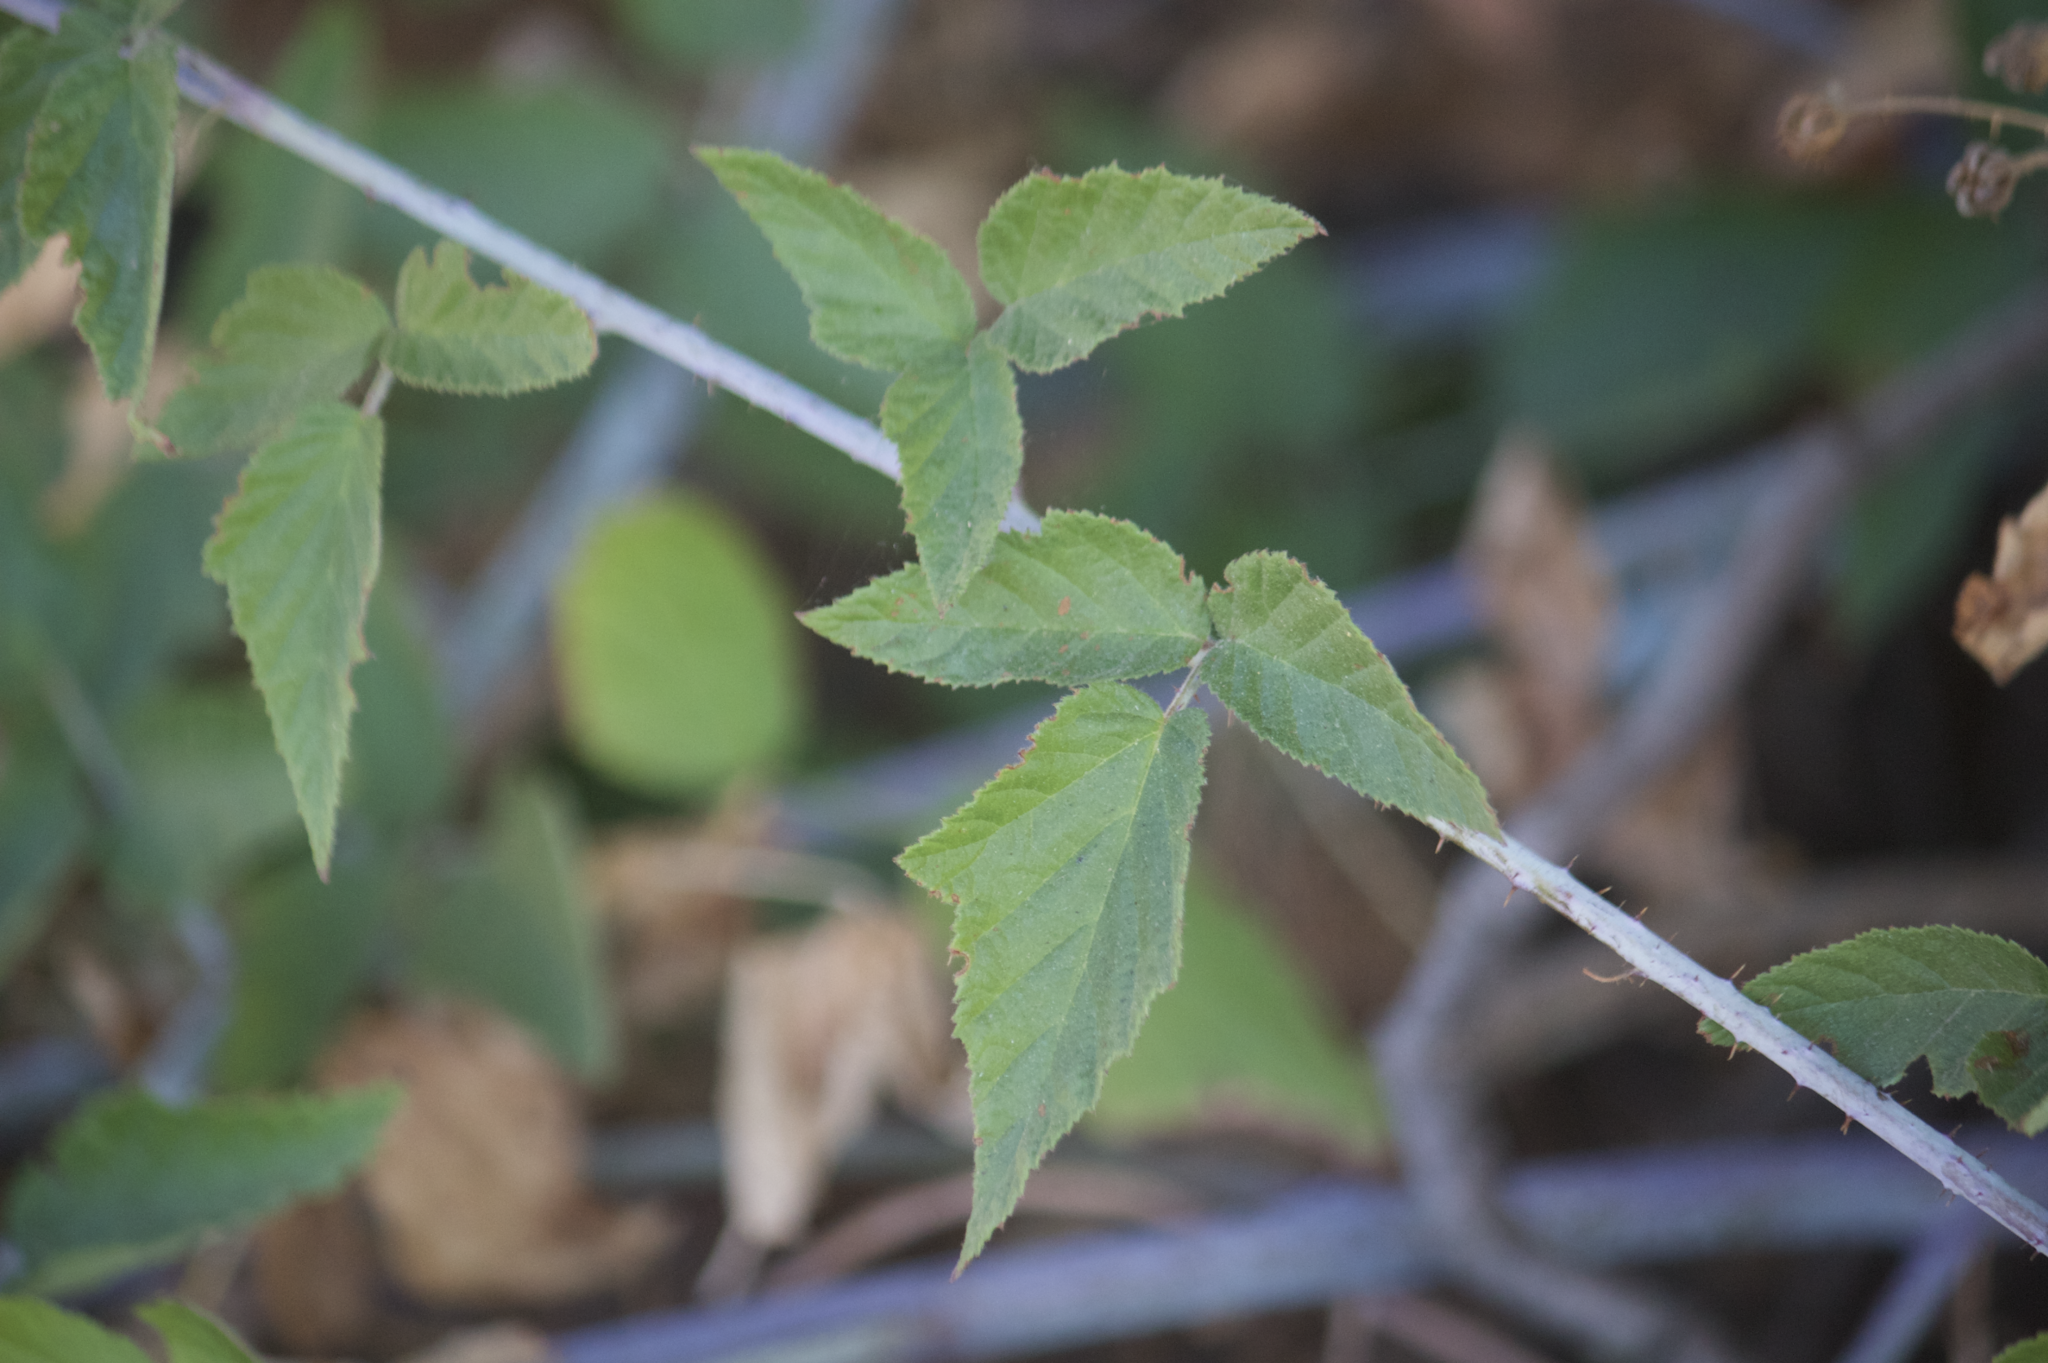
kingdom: Plantae
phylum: Tracheophyta
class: Magnoliopsida
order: Rosales
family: Rosaceae
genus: Rubus
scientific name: Rubus ursinus
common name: Pacific blackberry
